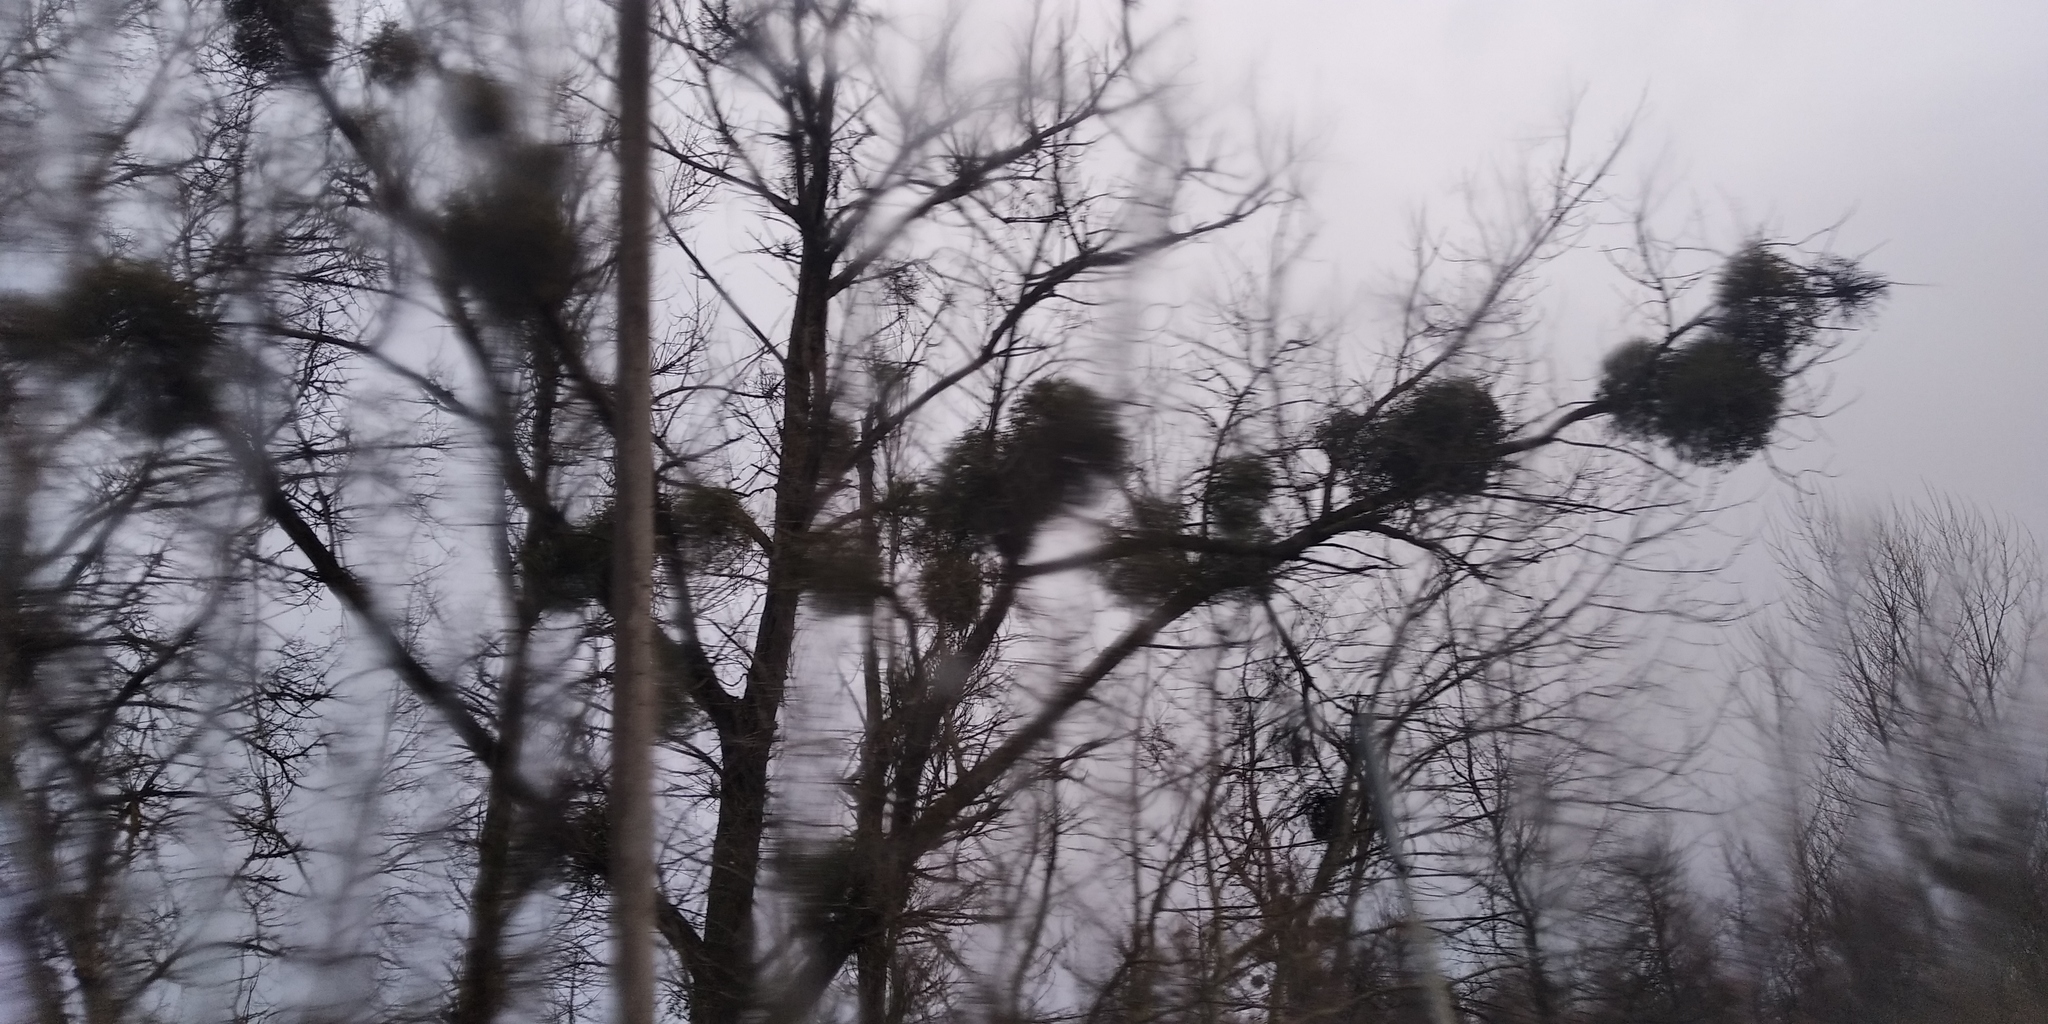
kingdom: Plantae
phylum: Tracheophyta
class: Magnoliopsida
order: Santalales
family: Viscaceae
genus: Viscum
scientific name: Viscum album
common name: Mistletoe
